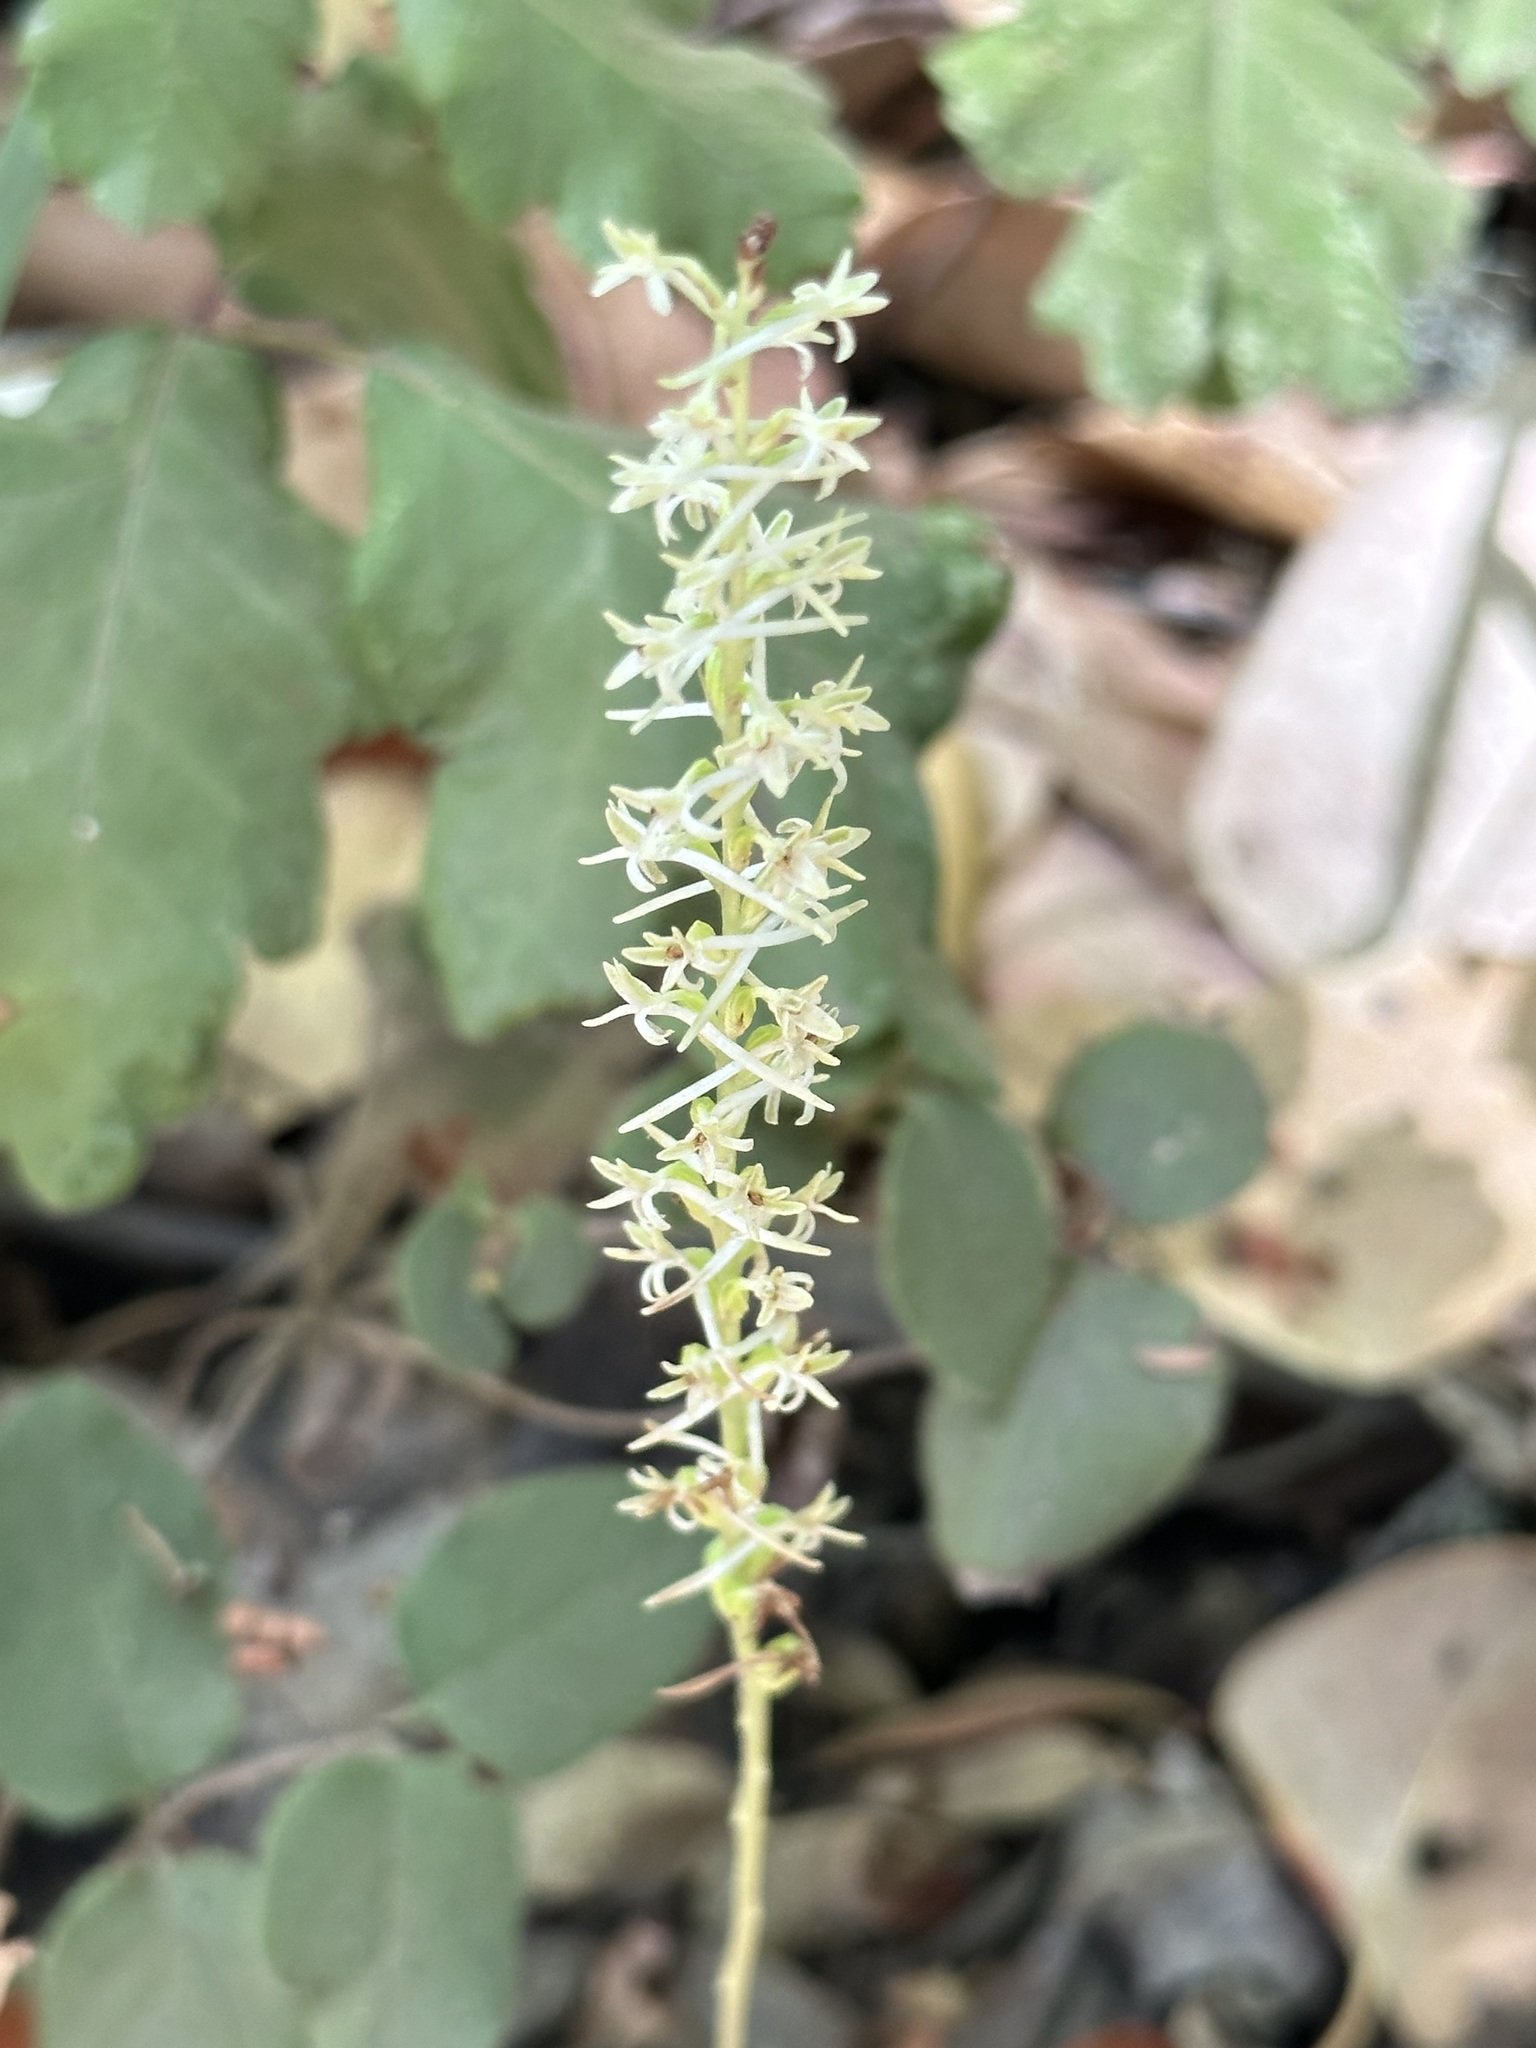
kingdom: Plantae
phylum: Tracheophyta
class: Liliopsida
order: Asparagales
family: Orchidaceae
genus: Platanthera
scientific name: Platanthera transversa
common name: Royal rein orchid
